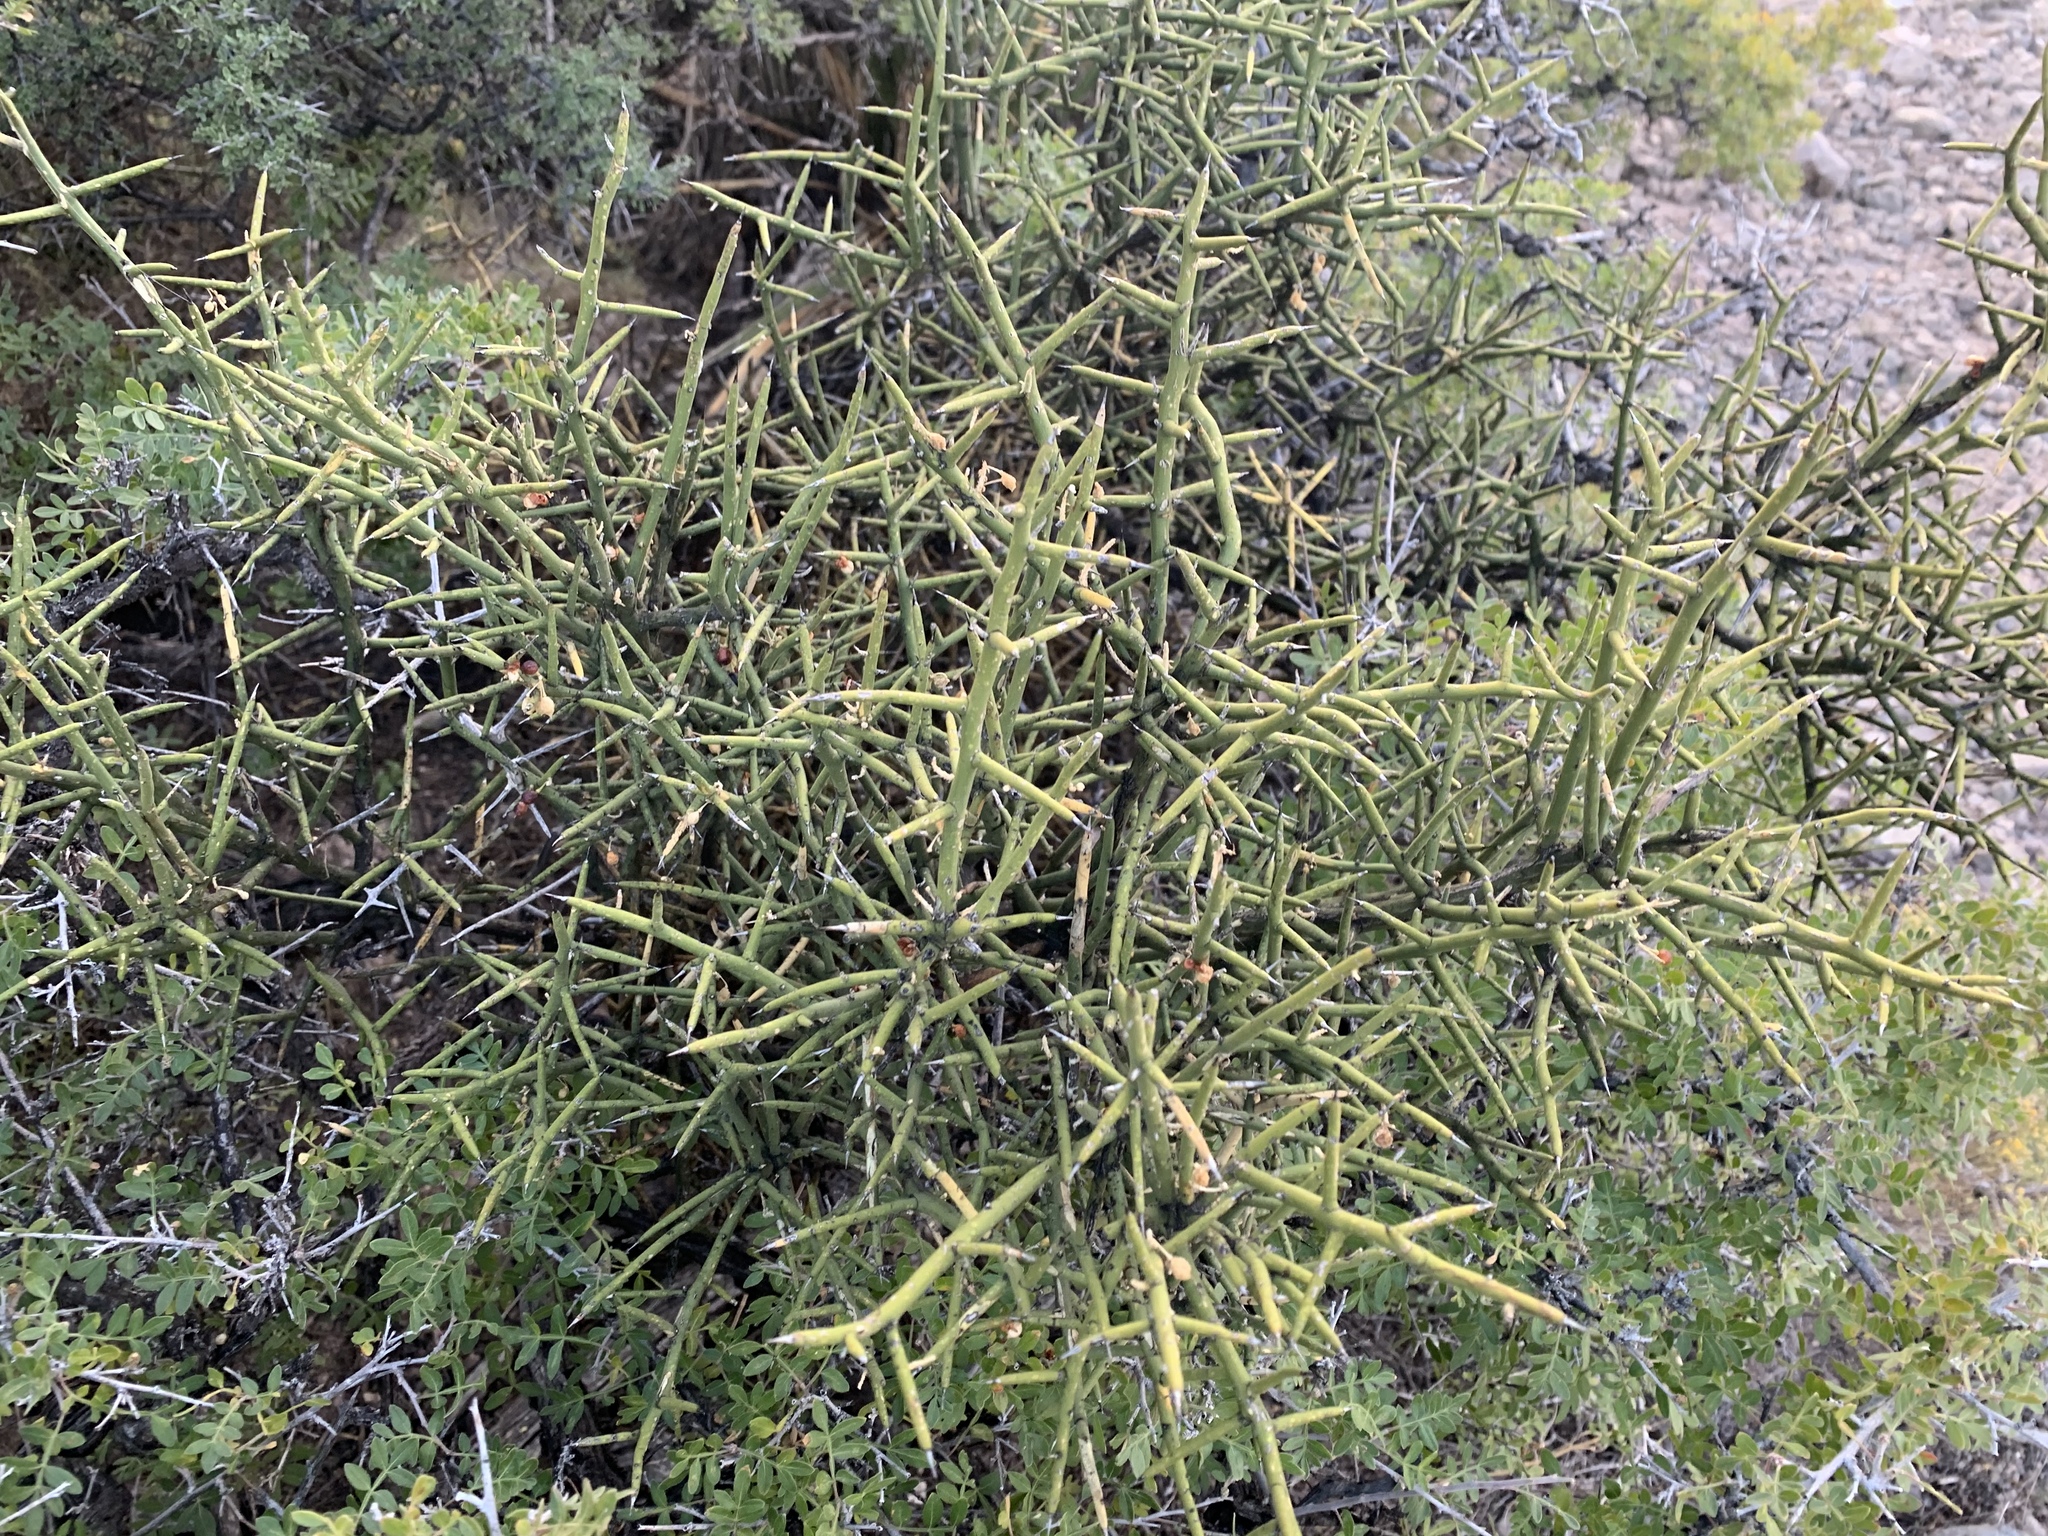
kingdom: Plantae
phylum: Tracheophyta
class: Magnoliopsida
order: Brassicales
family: Koeberliniaceae
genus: Koeberlinia
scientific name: Koeberlinia spinosa
